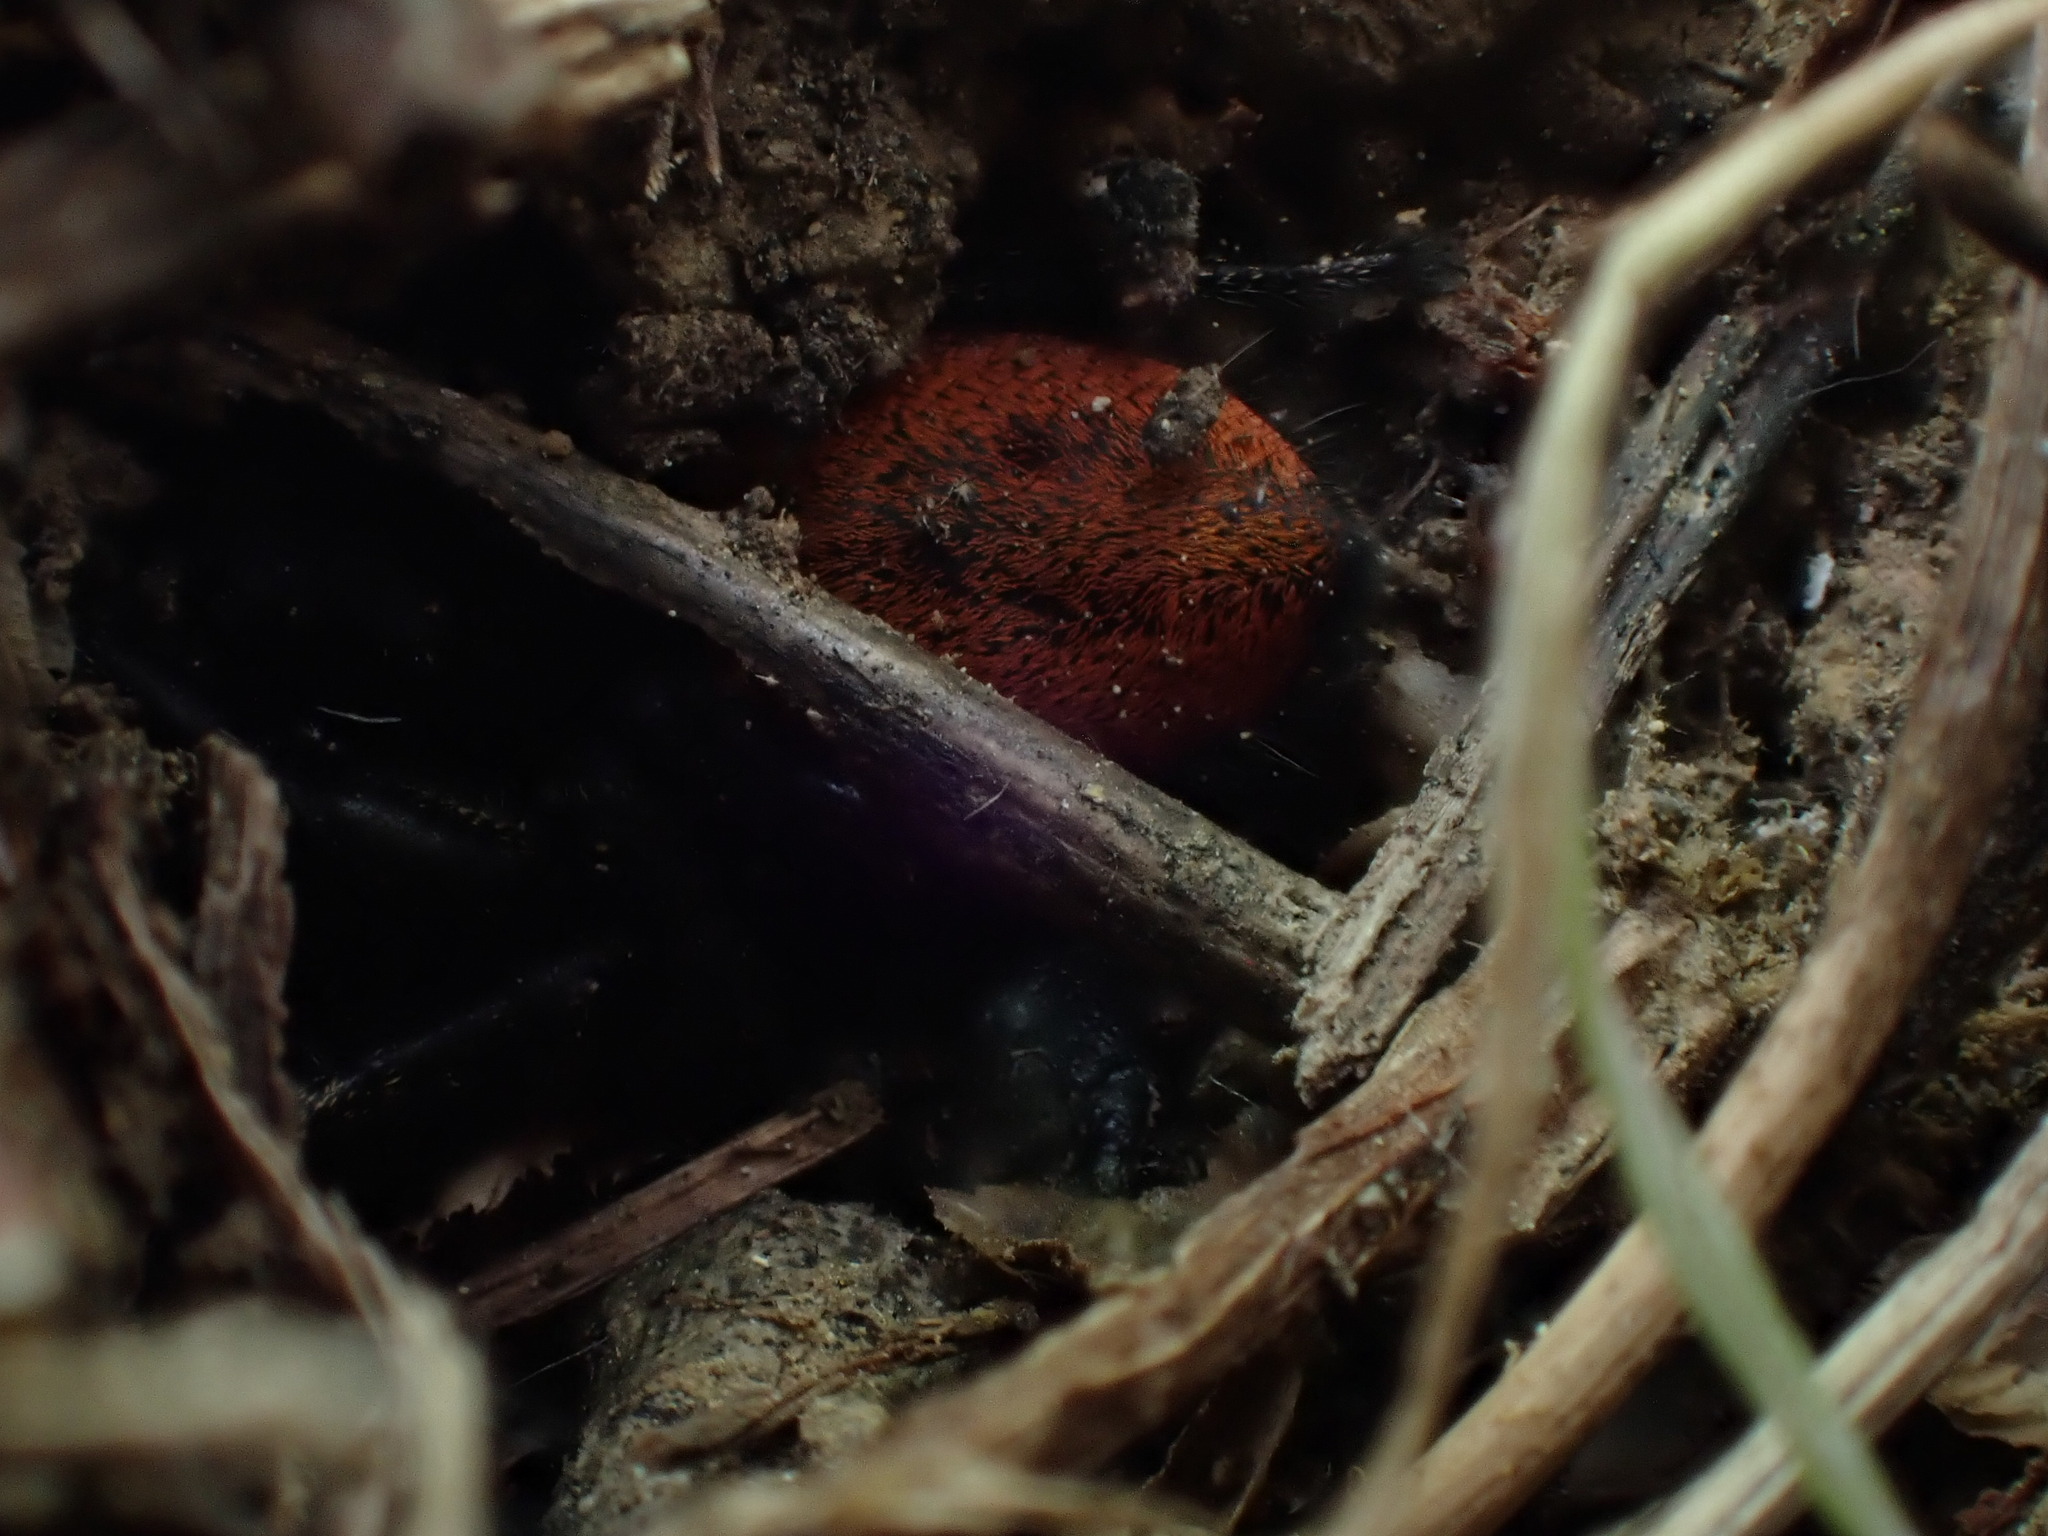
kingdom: Animalia
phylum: Arthropoda
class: Arachnida
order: Araneae
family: Salticidae
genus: Phidippus
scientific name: Phidippus johnsoni
